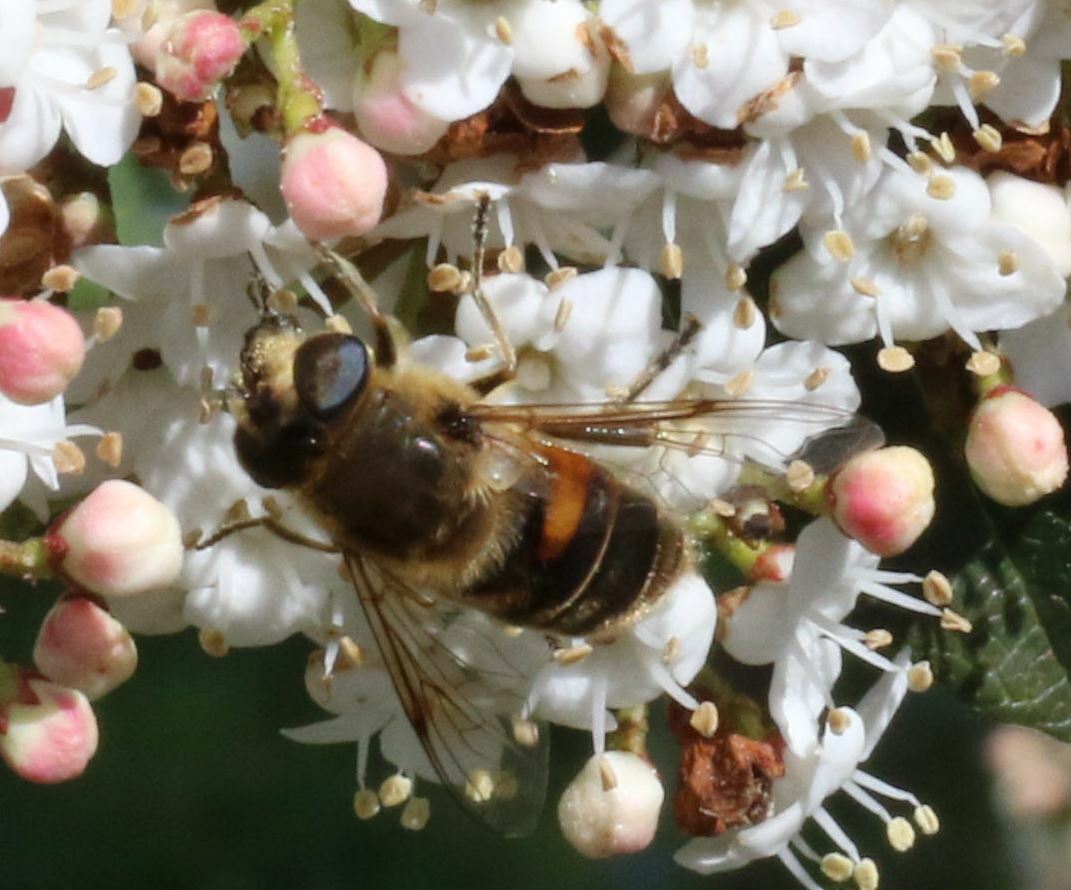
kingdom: Animalia
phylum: Arthropoda
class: Insecta
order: Diptera
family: Syrphidae
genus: Eristalis
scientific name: Eristalis tenax
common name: Drone fly
